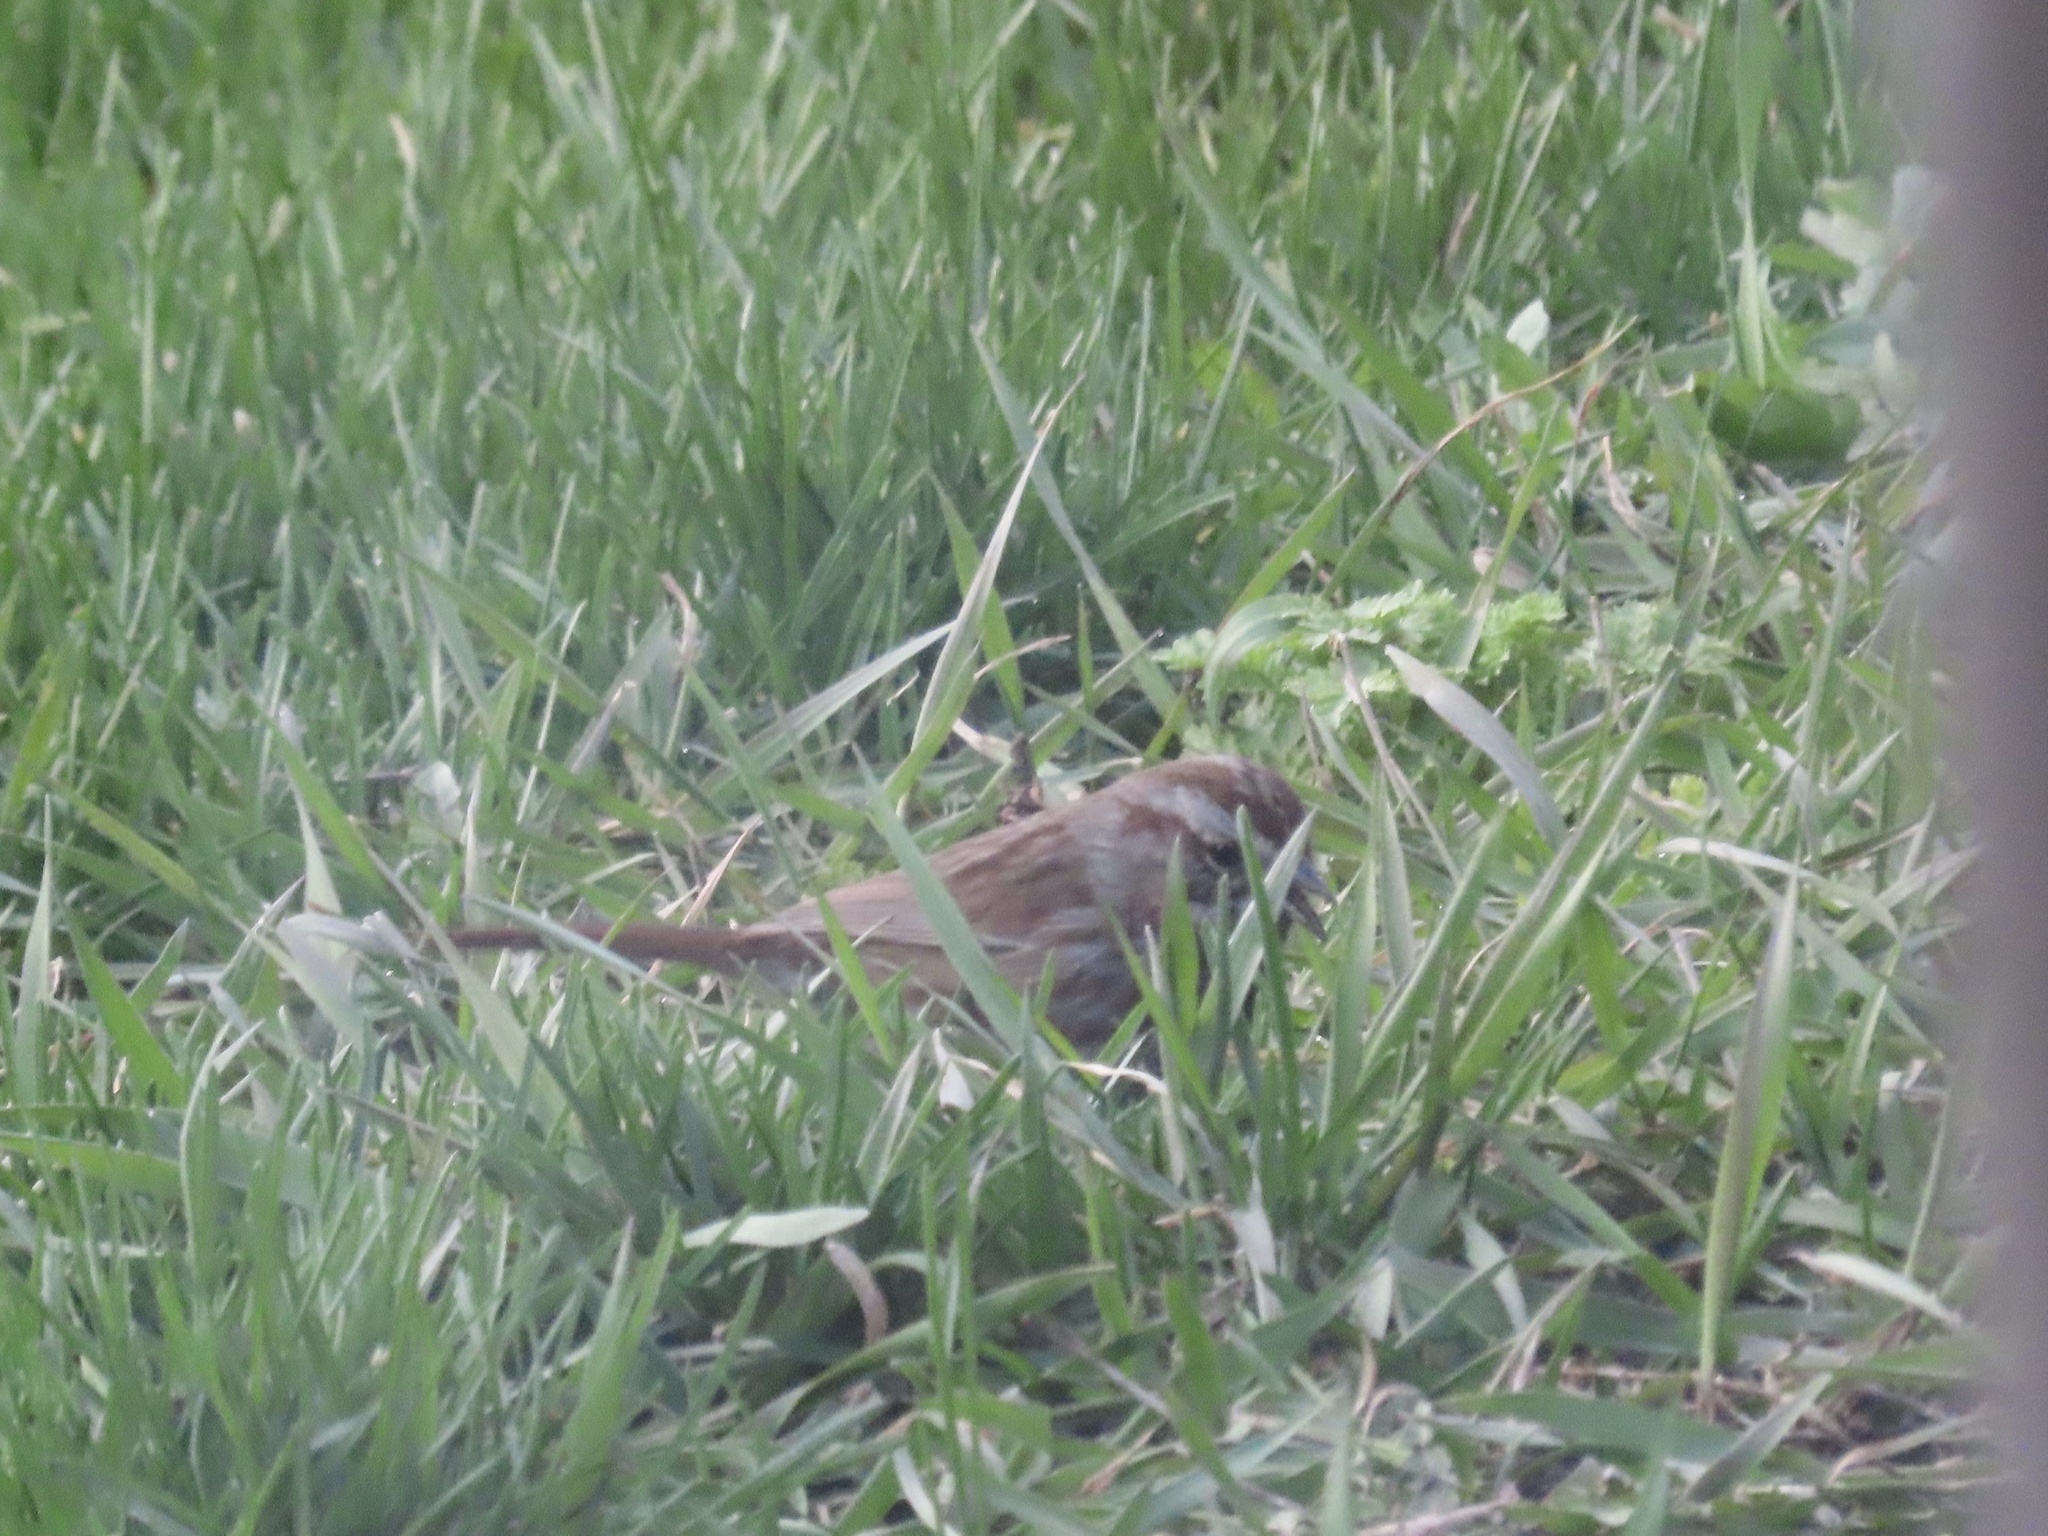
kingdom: Animalia
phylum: Chordata
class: Aves
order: Passeriformes
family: Passerellidae
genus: Melospiza
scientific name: Melospiza melodia
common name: Song sparrow
